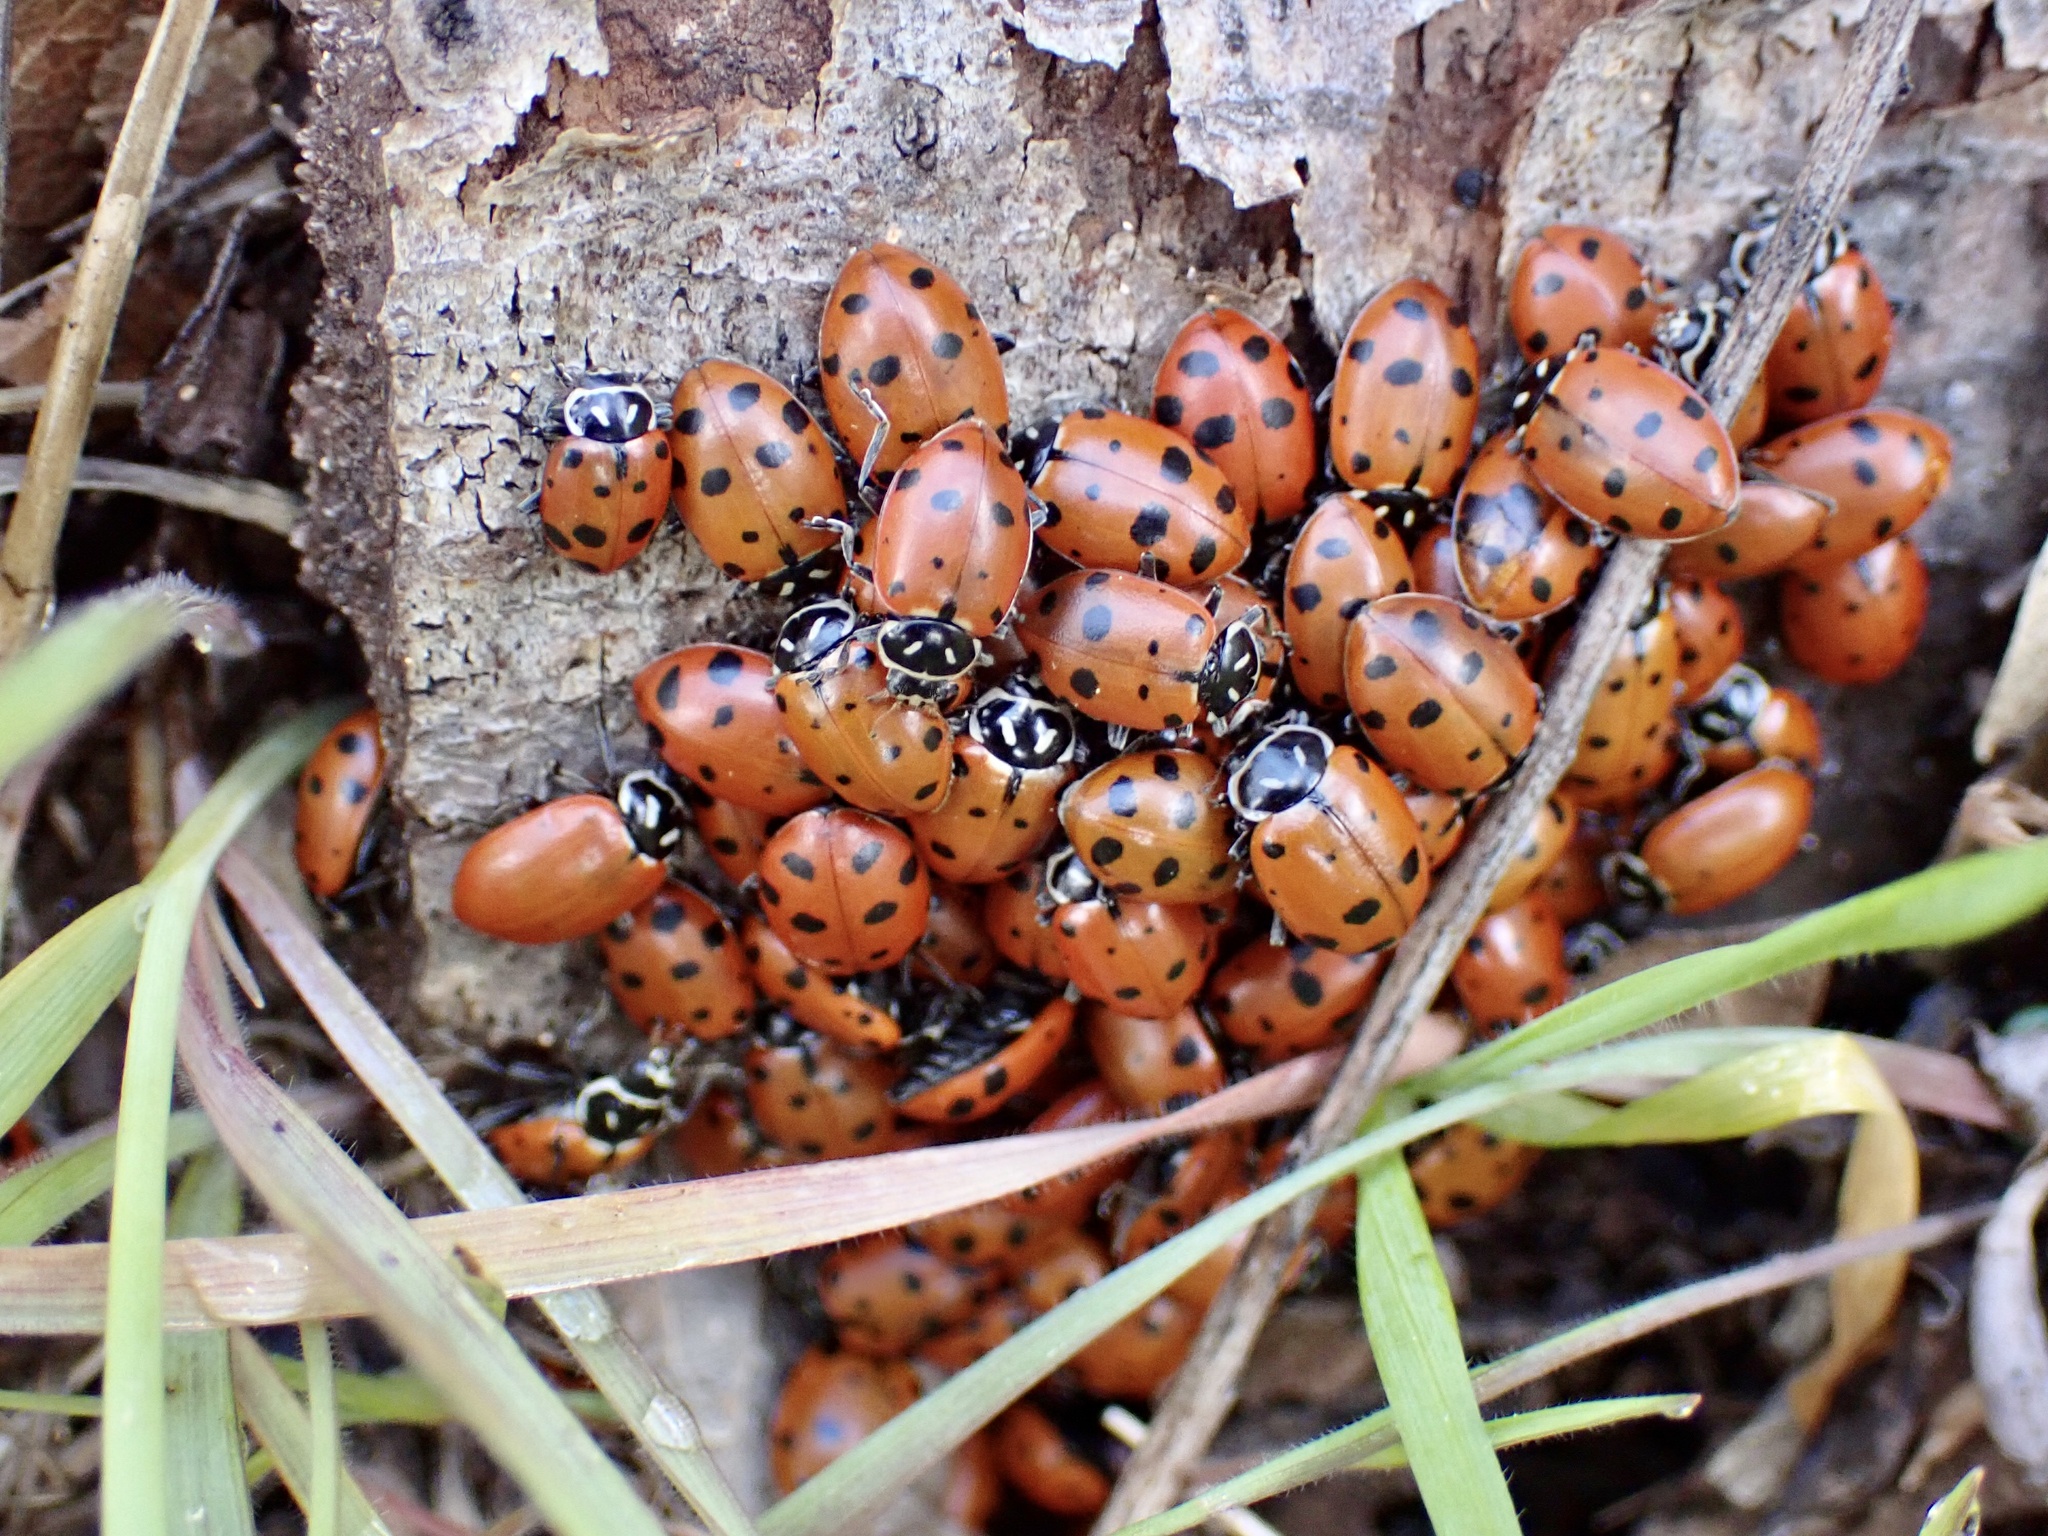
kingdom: Animalia
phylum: Arthropoda
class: Insecta
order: Coleoptera
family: Coccinellidae
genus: Hippodamia
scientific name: Hippodamia convergens
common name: Convergent lady beetle
